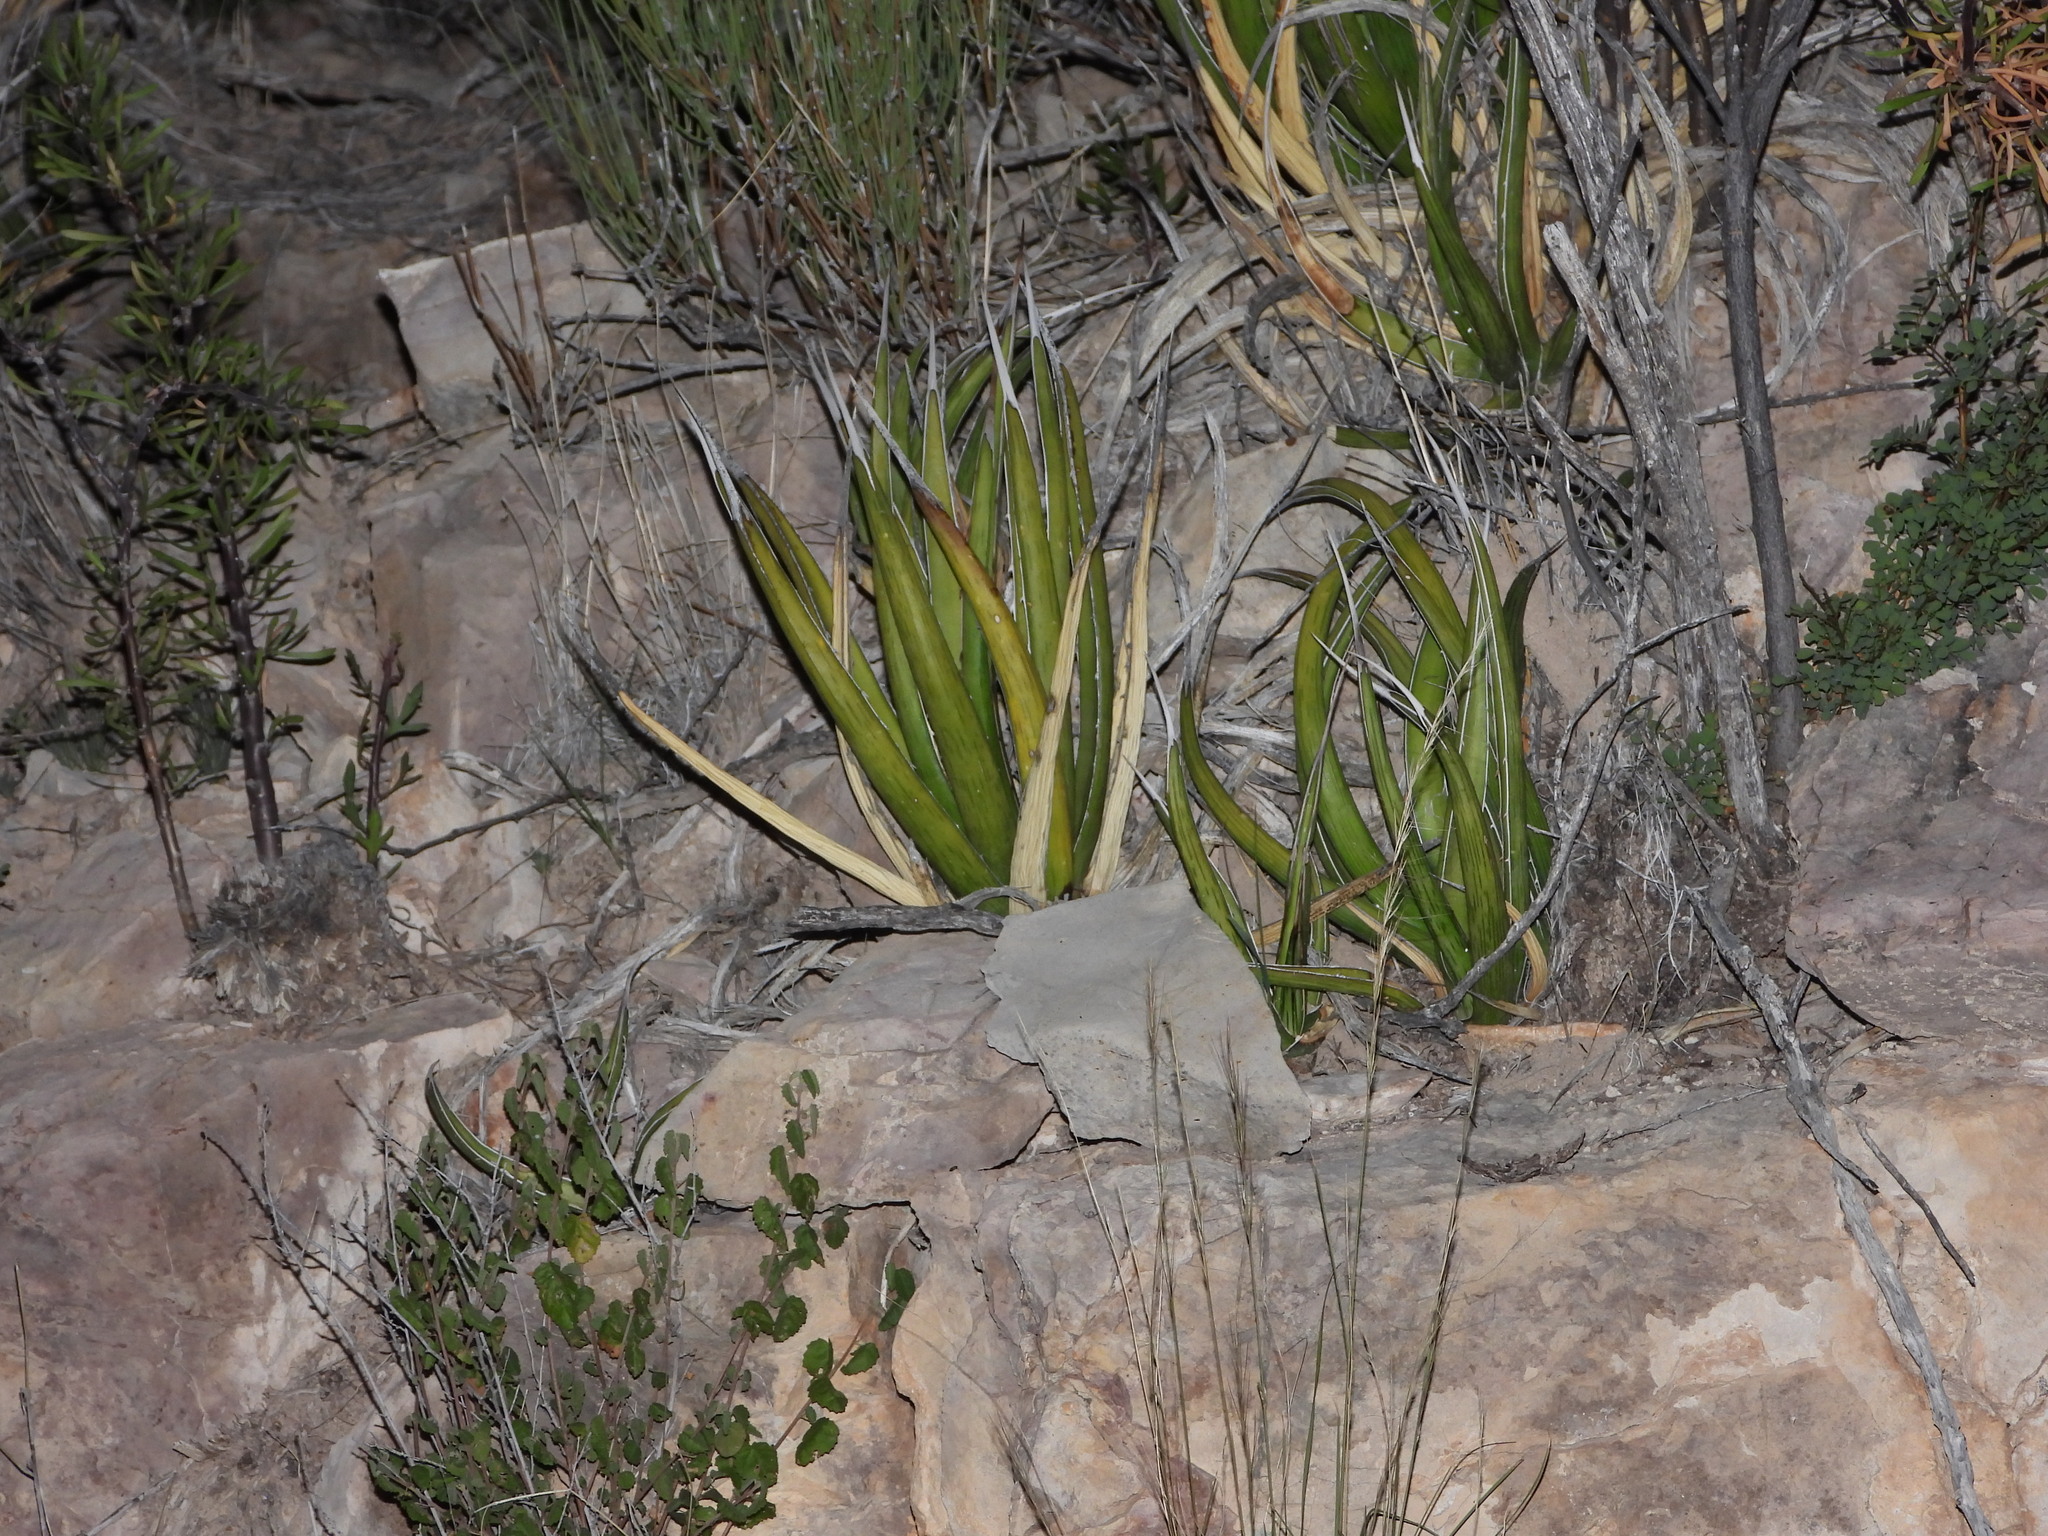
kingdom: Plantae
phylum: Tracheophyta
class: Liliopsida
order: Asparagales
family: Asparagaceae
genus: Agave
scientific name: Agave lechuguilla
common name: Lecheguilla agave
